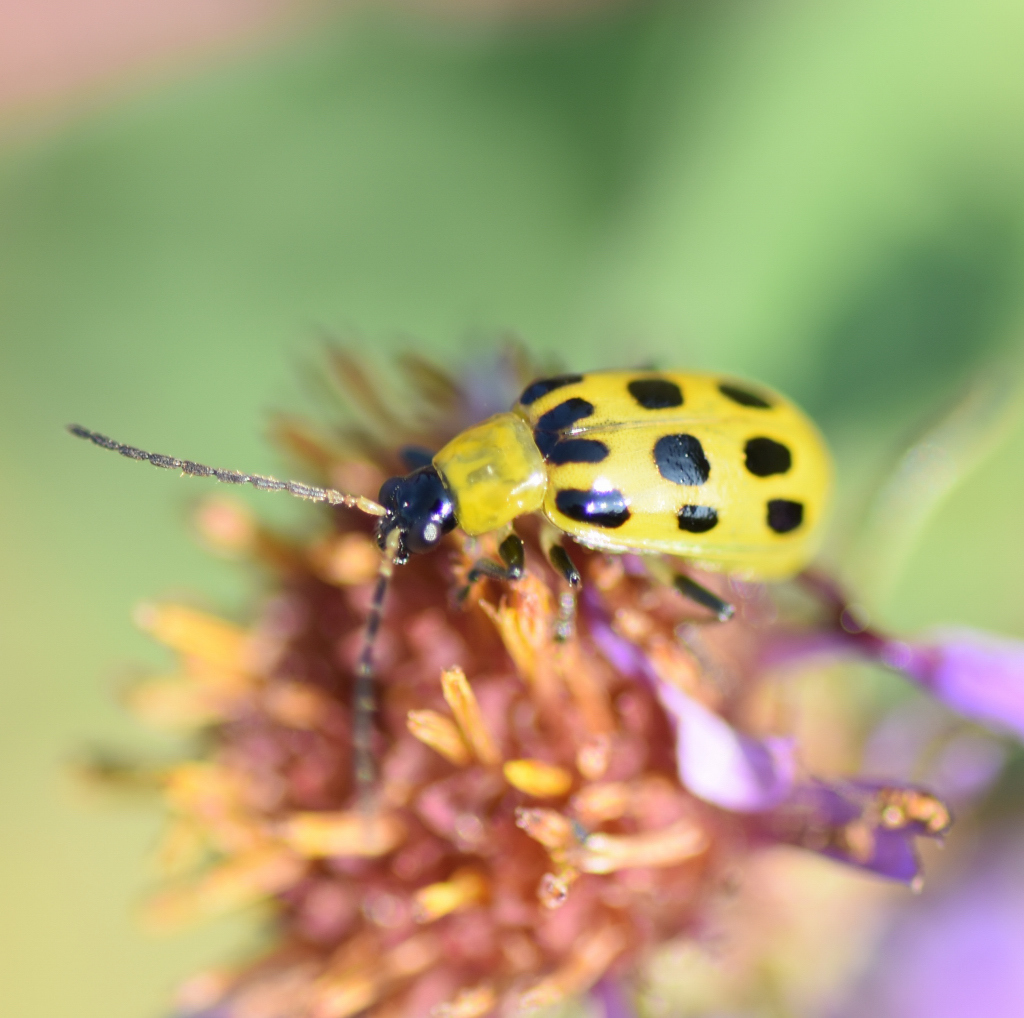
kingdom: Animalia
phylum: Arthropoda
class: Insecta
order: Coleoptera
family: Chrysomelidae
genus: Diabrotica
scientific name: Diabrotica undecimpunctata
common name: Spotted cucumber beetle
